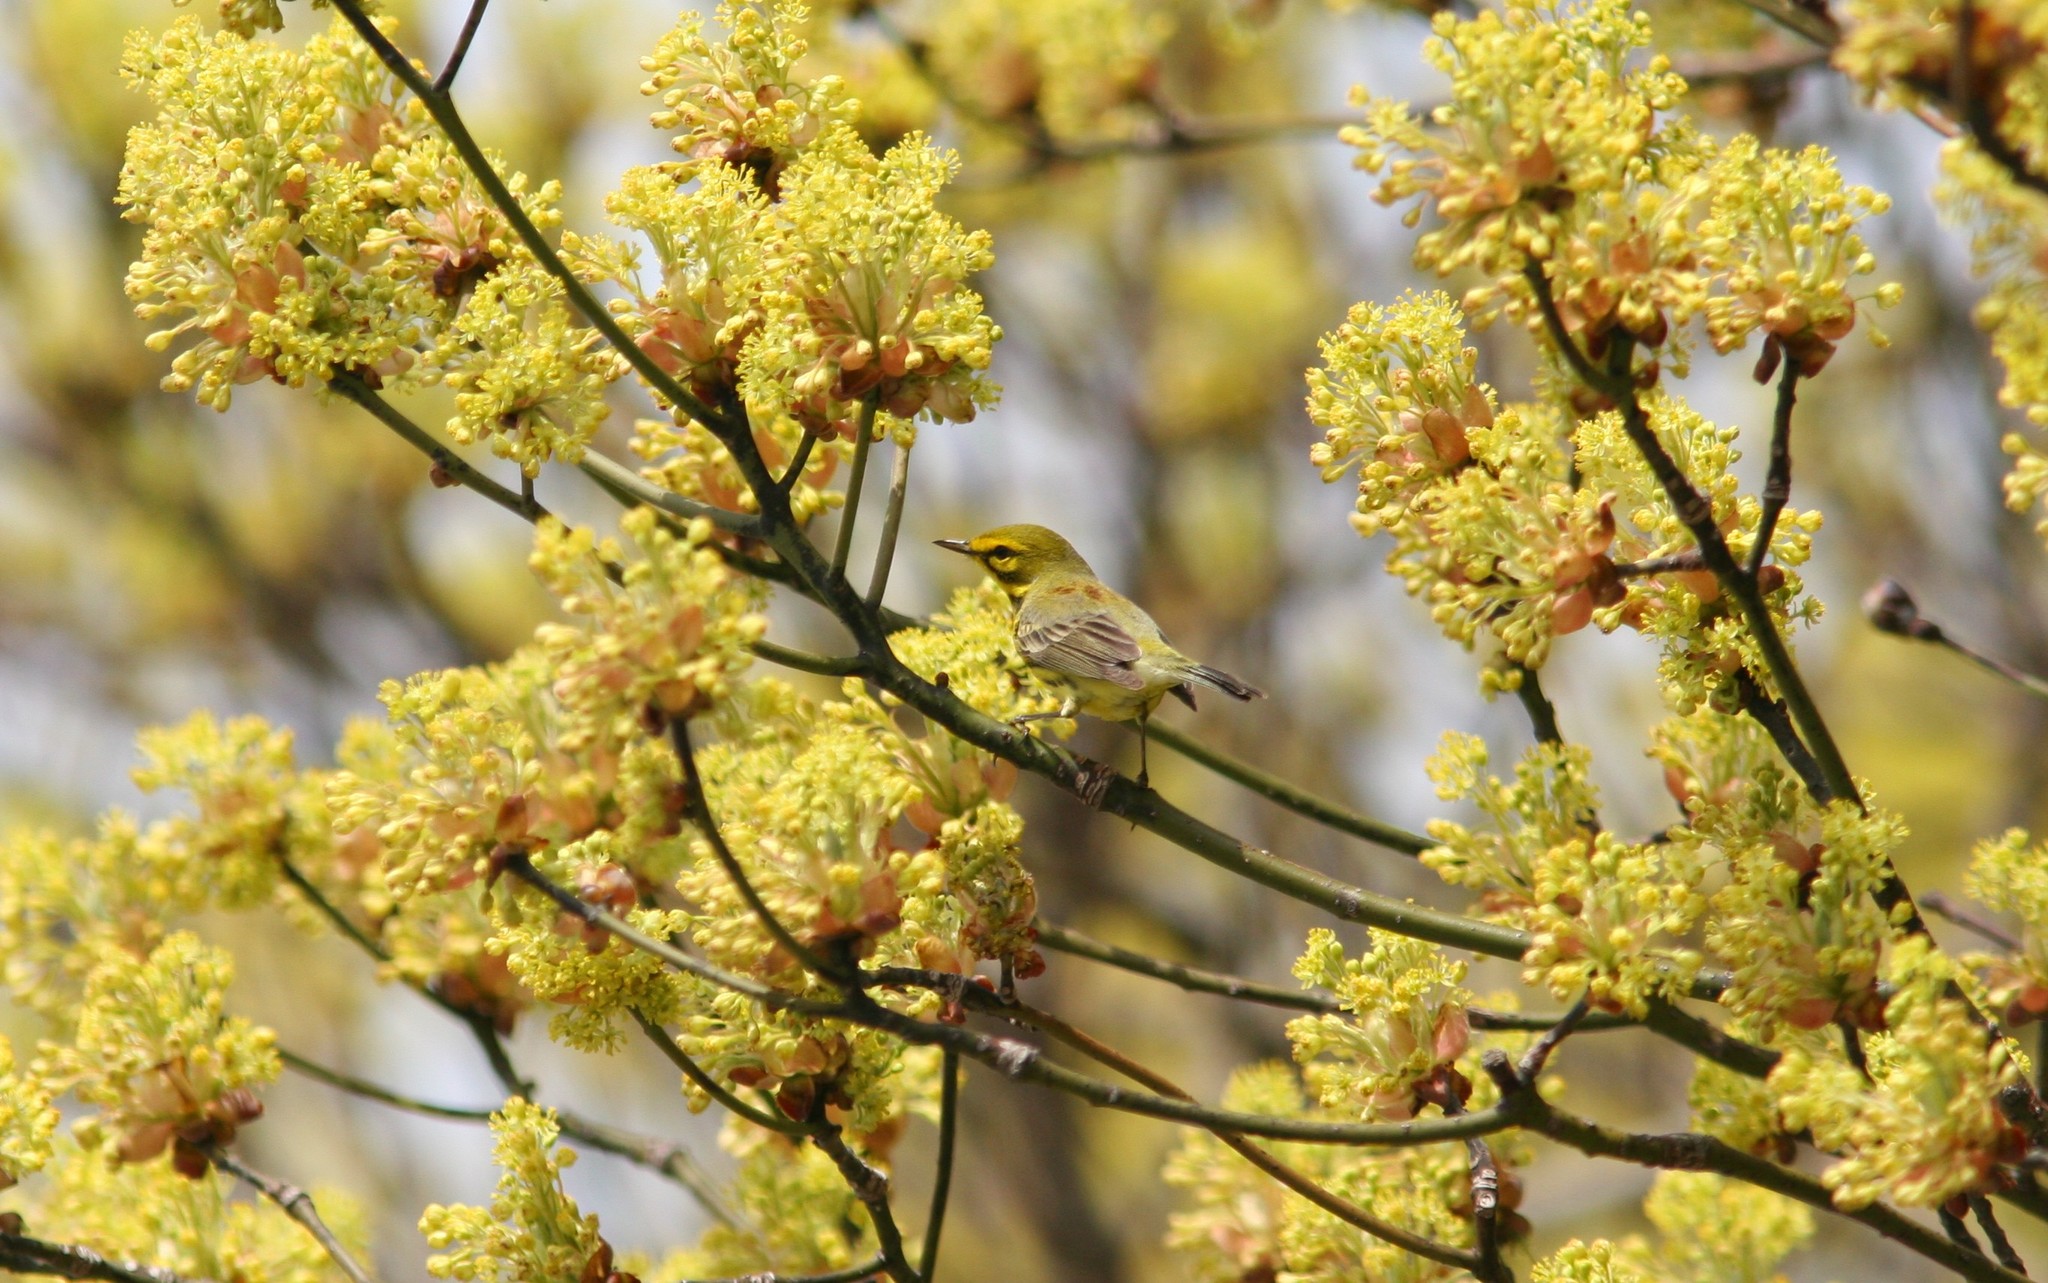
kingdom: Animalia
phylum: Chordata
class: Aves
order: Passeriformes
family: Parulidae
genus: Setophaga
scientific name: Setophaga discolor
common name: Prairie warbler
